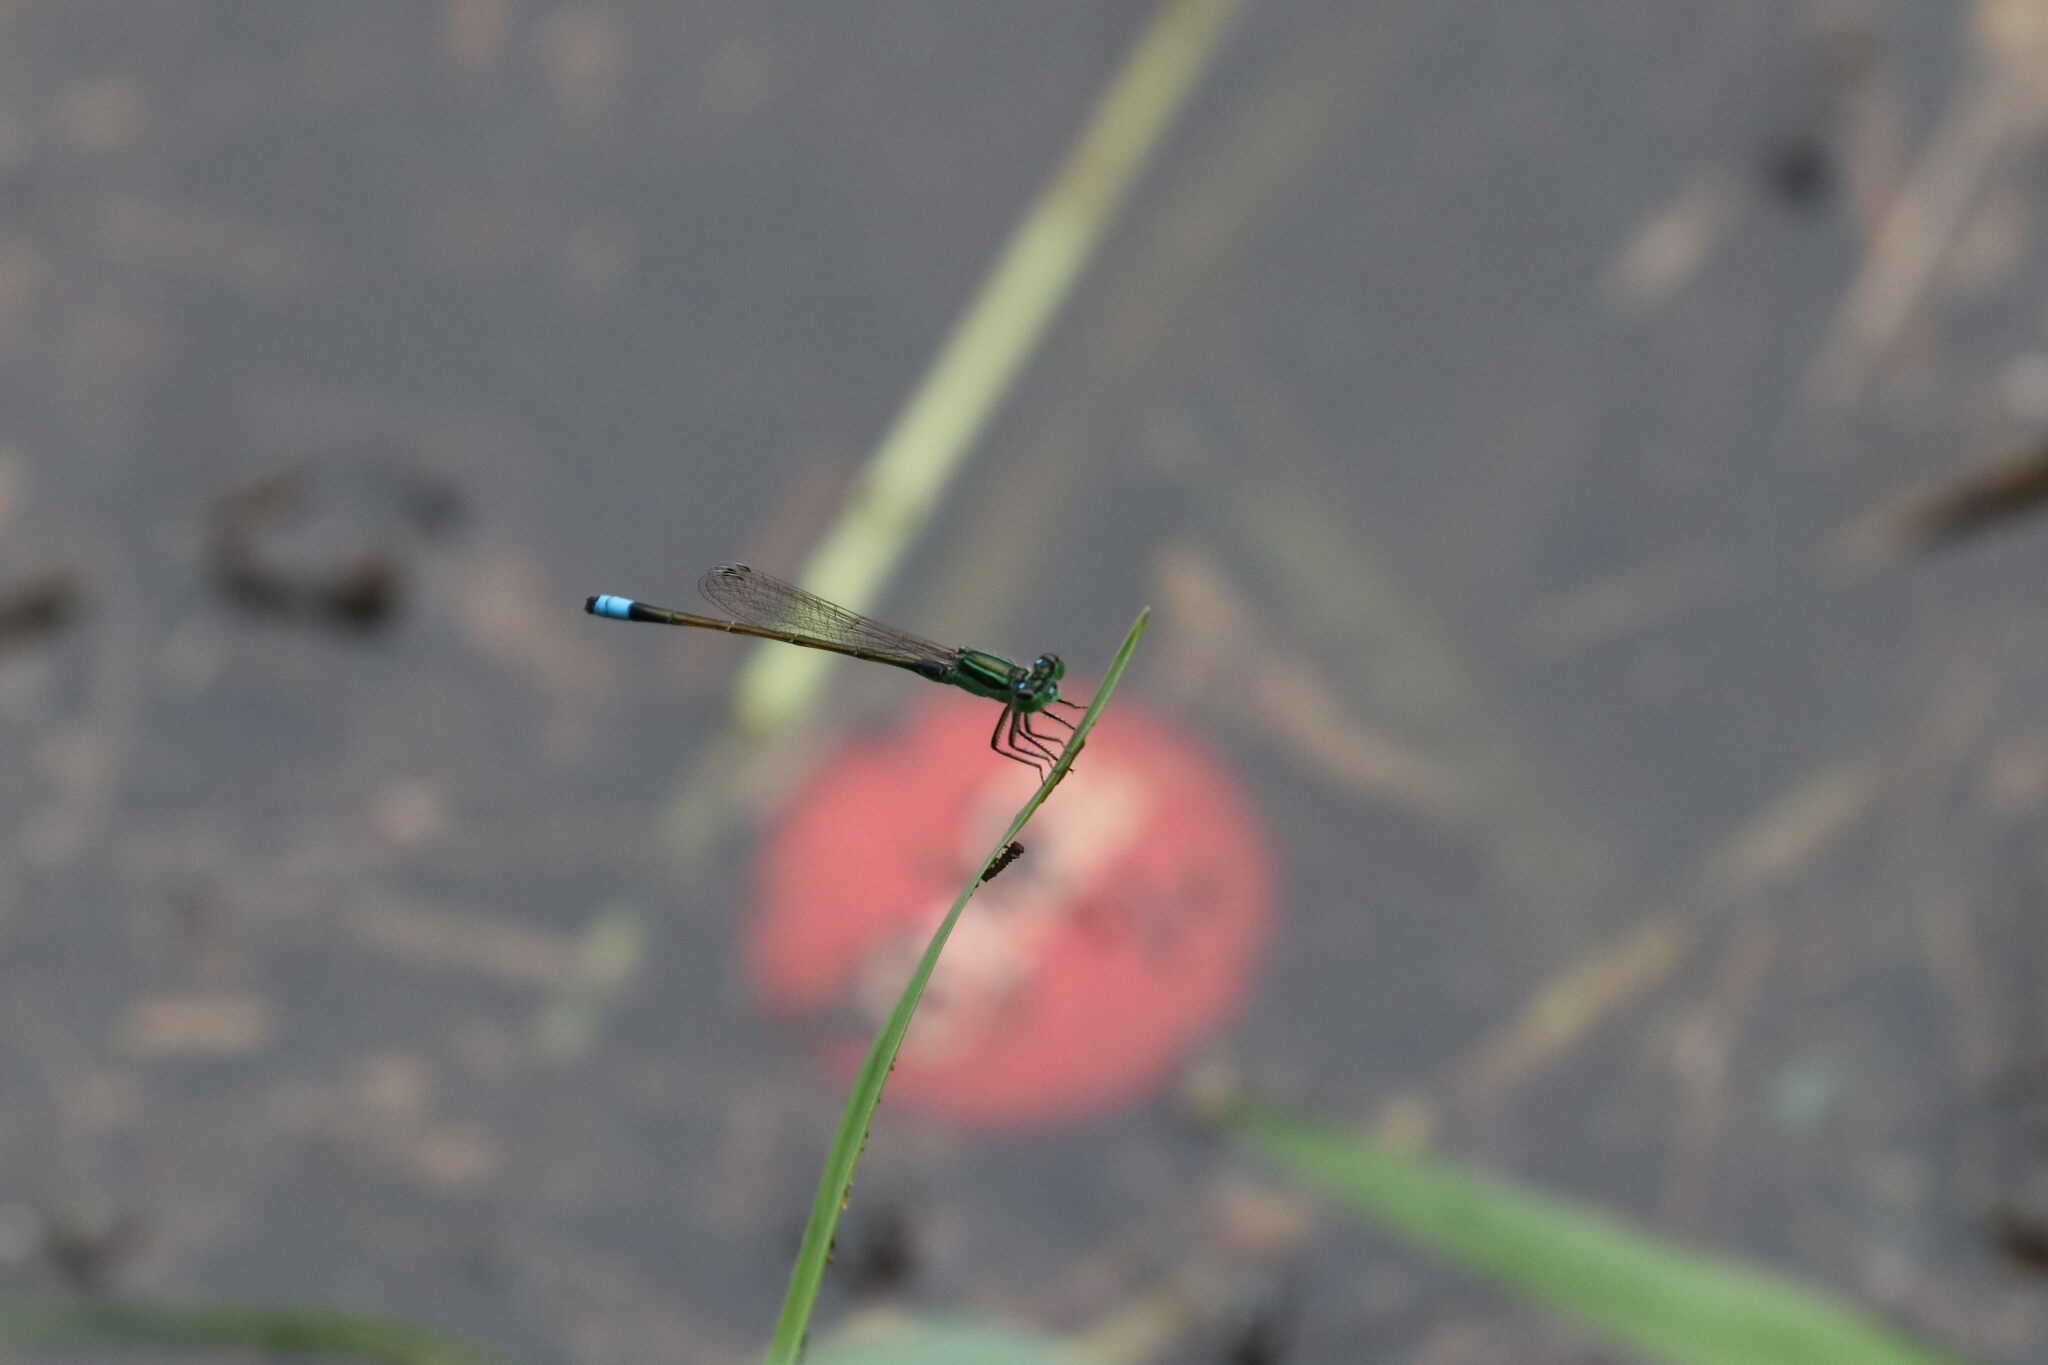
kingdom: Animalia
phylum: Arthropoda
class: Insecta
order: Odonata
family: Coenagrionidae
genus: Ischnura
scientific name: Ischnura senegalensis
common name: Tropical bluetail
